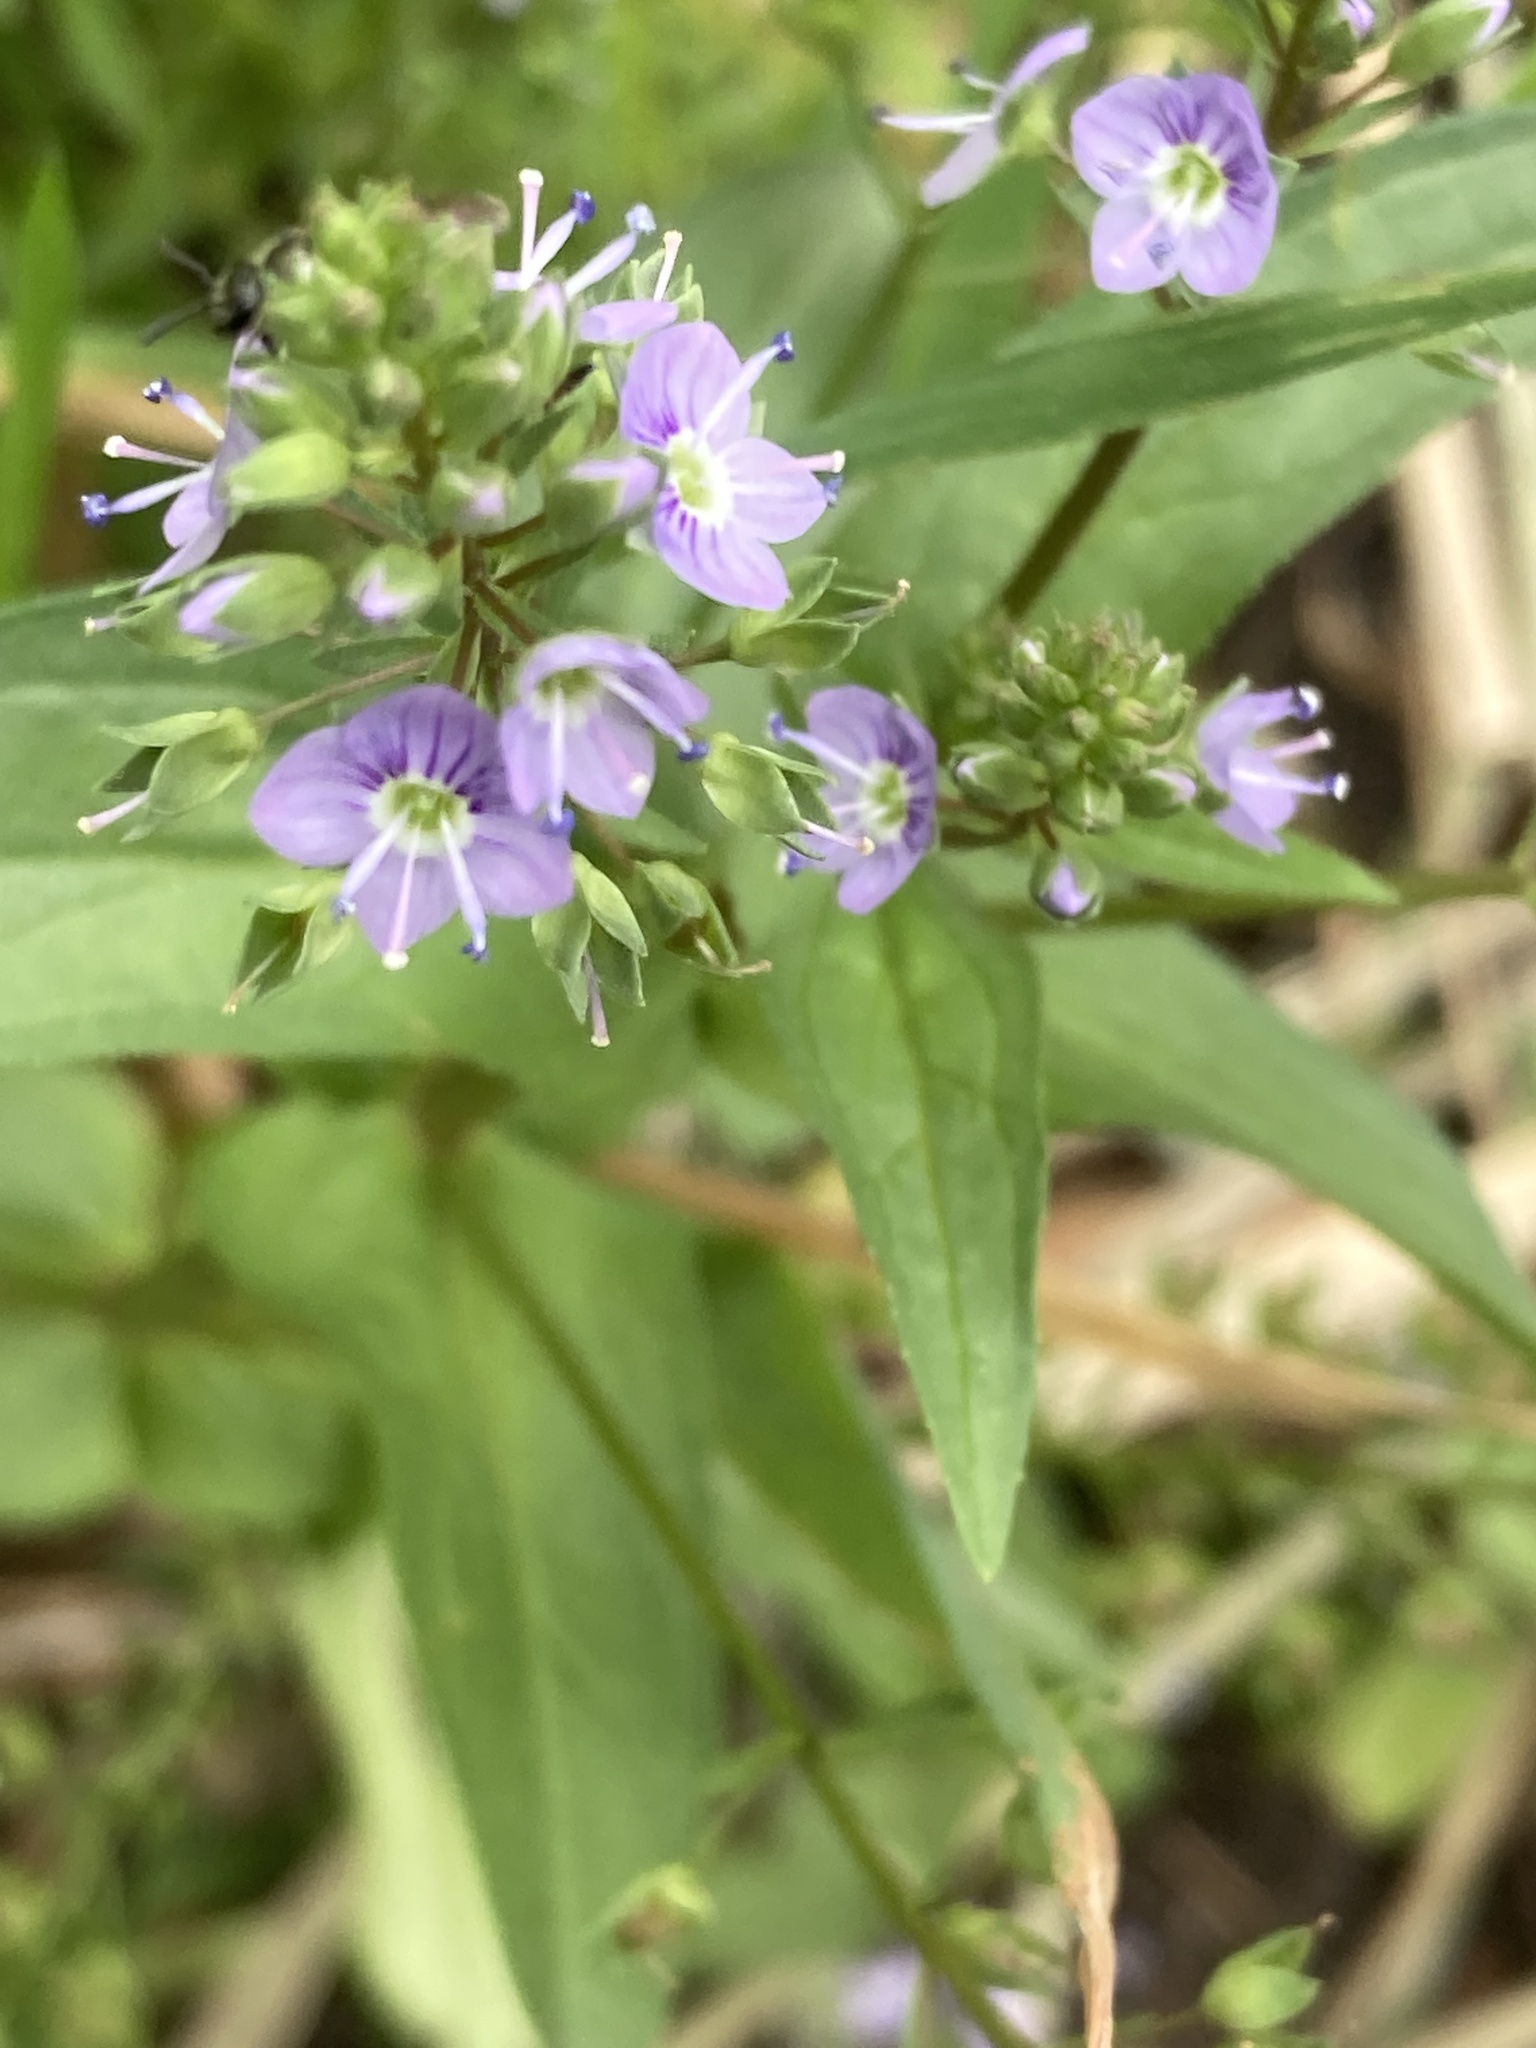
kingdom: Plantae
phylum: Tracheophyta
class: Magnoliopsida
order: Lamiales
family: Plantaginaceae
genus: Veronica
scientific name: Veronica anagallis-aquatica
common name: Water speedwell
